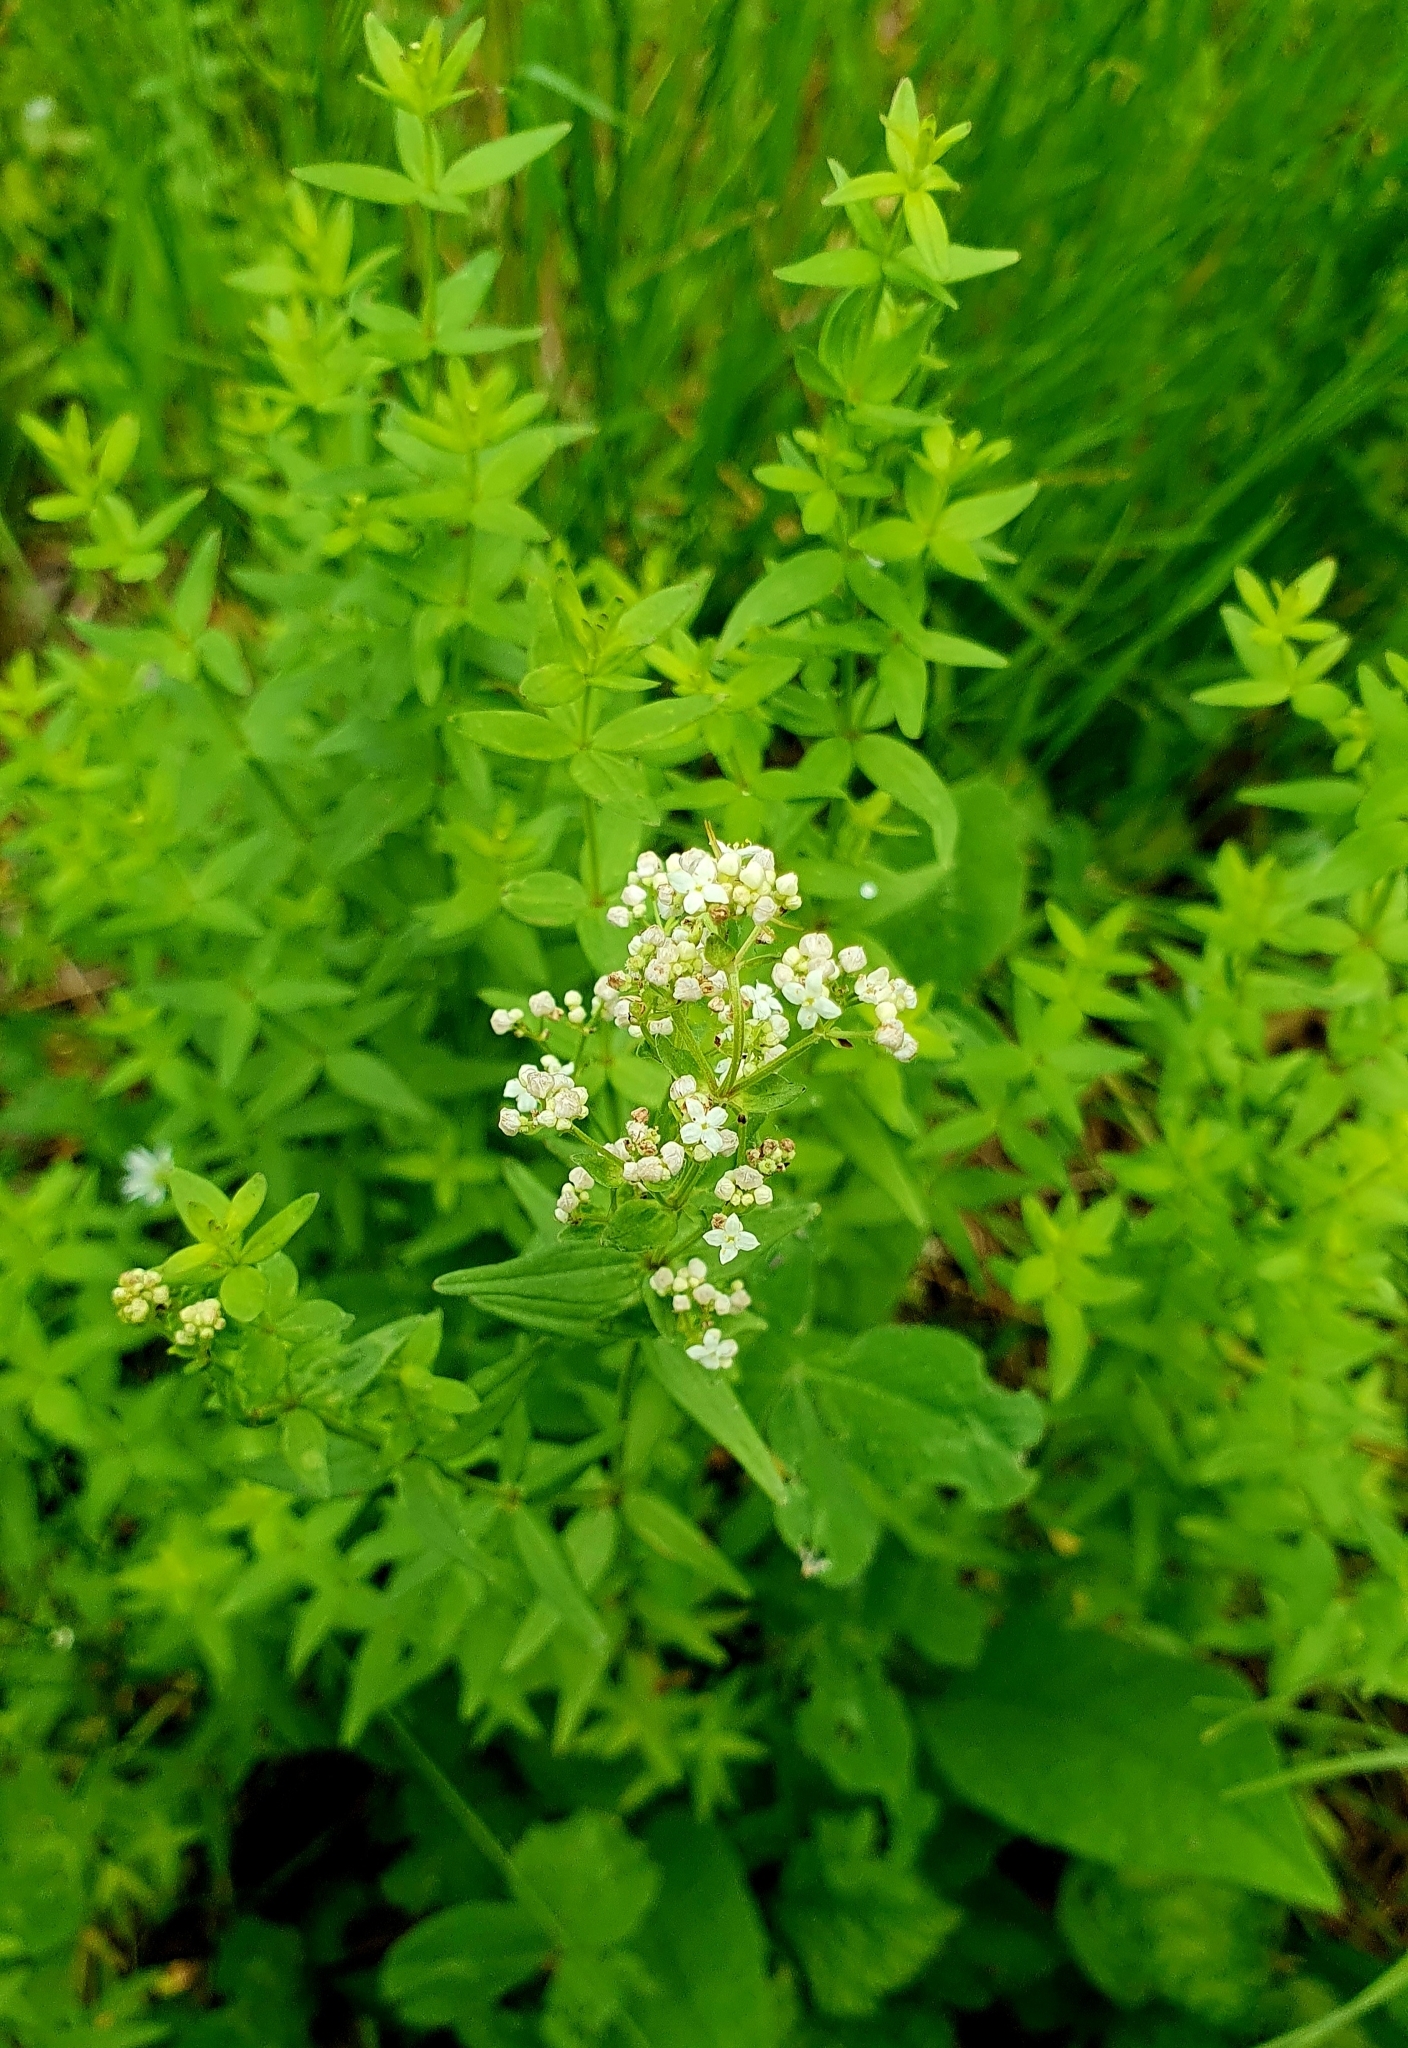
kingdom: Plantae
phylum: Tracheophyta
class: Magnoliopsida
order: Gentianales
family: Rubiaceae
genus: Galium
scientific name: Galium rubioides
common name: European bedstraw
